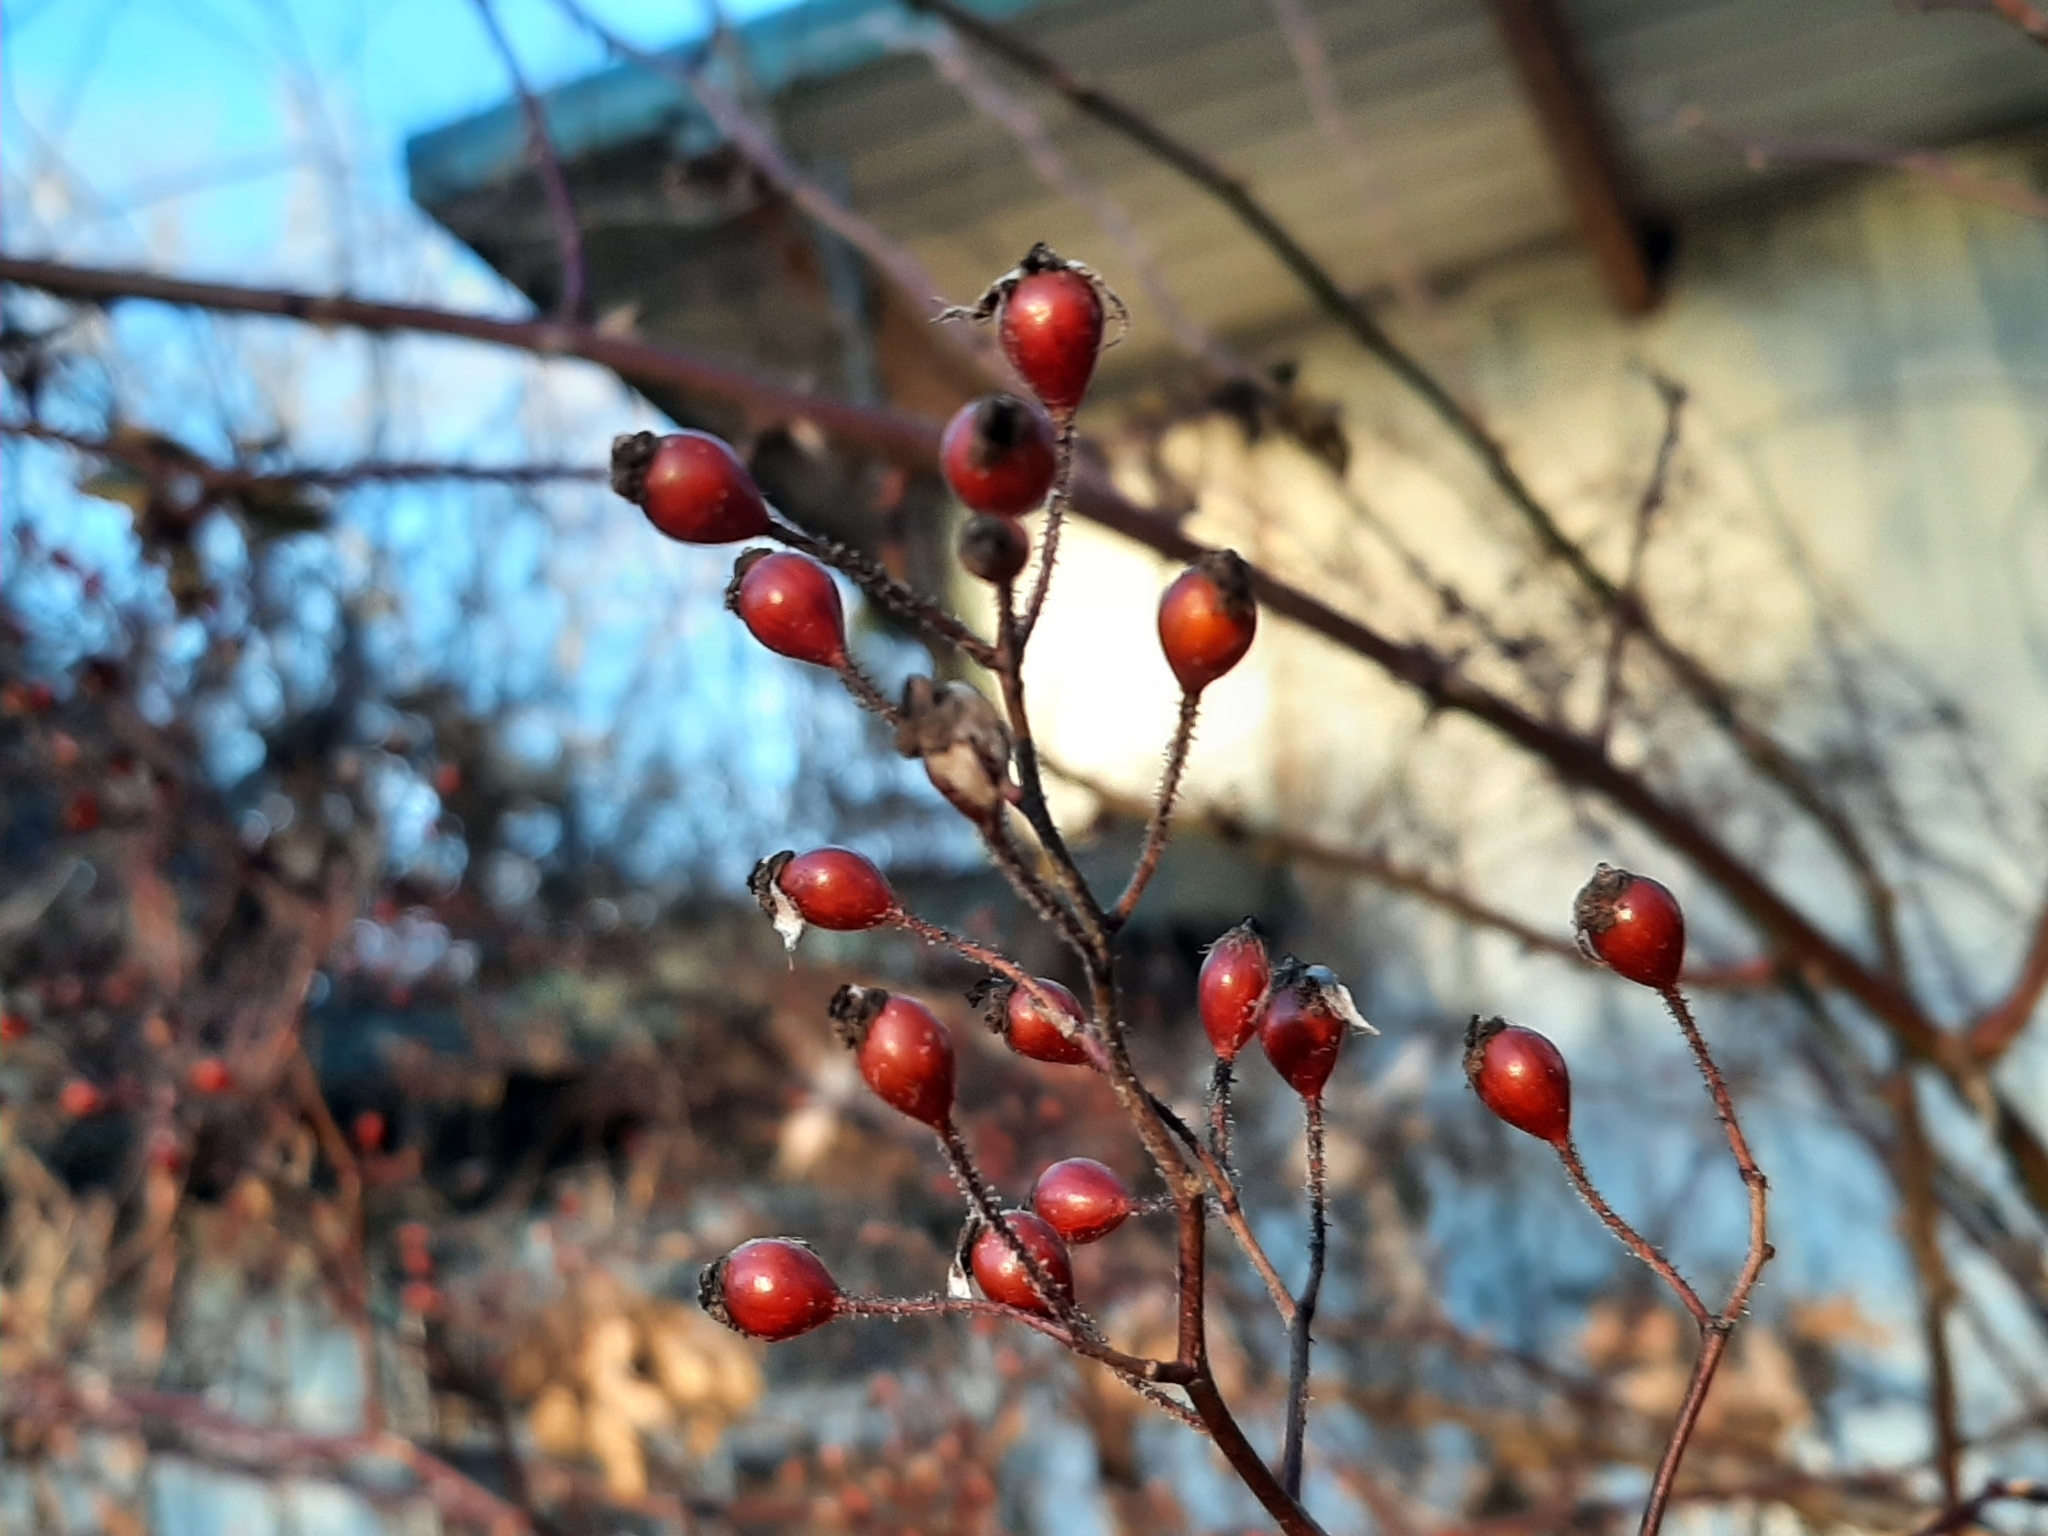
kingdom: Plantae
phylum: Tracheophyta
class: Magnoliopsida
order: Rosales
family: Rosaceae
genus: Rosa
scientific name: Rosa multiflora
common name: Multiflora rose
